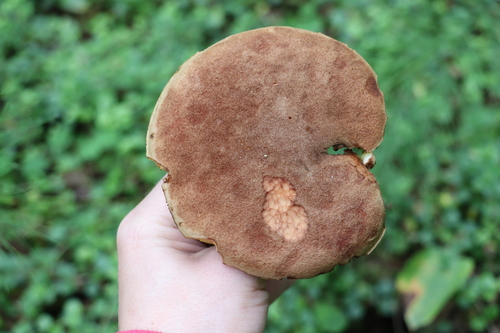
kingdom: Fungi
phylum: Basidiomycota
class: Agaricomycetes
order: Boletales
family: Boletaceae
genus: Xerocomus
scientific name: Xerocomus subtomentosus
